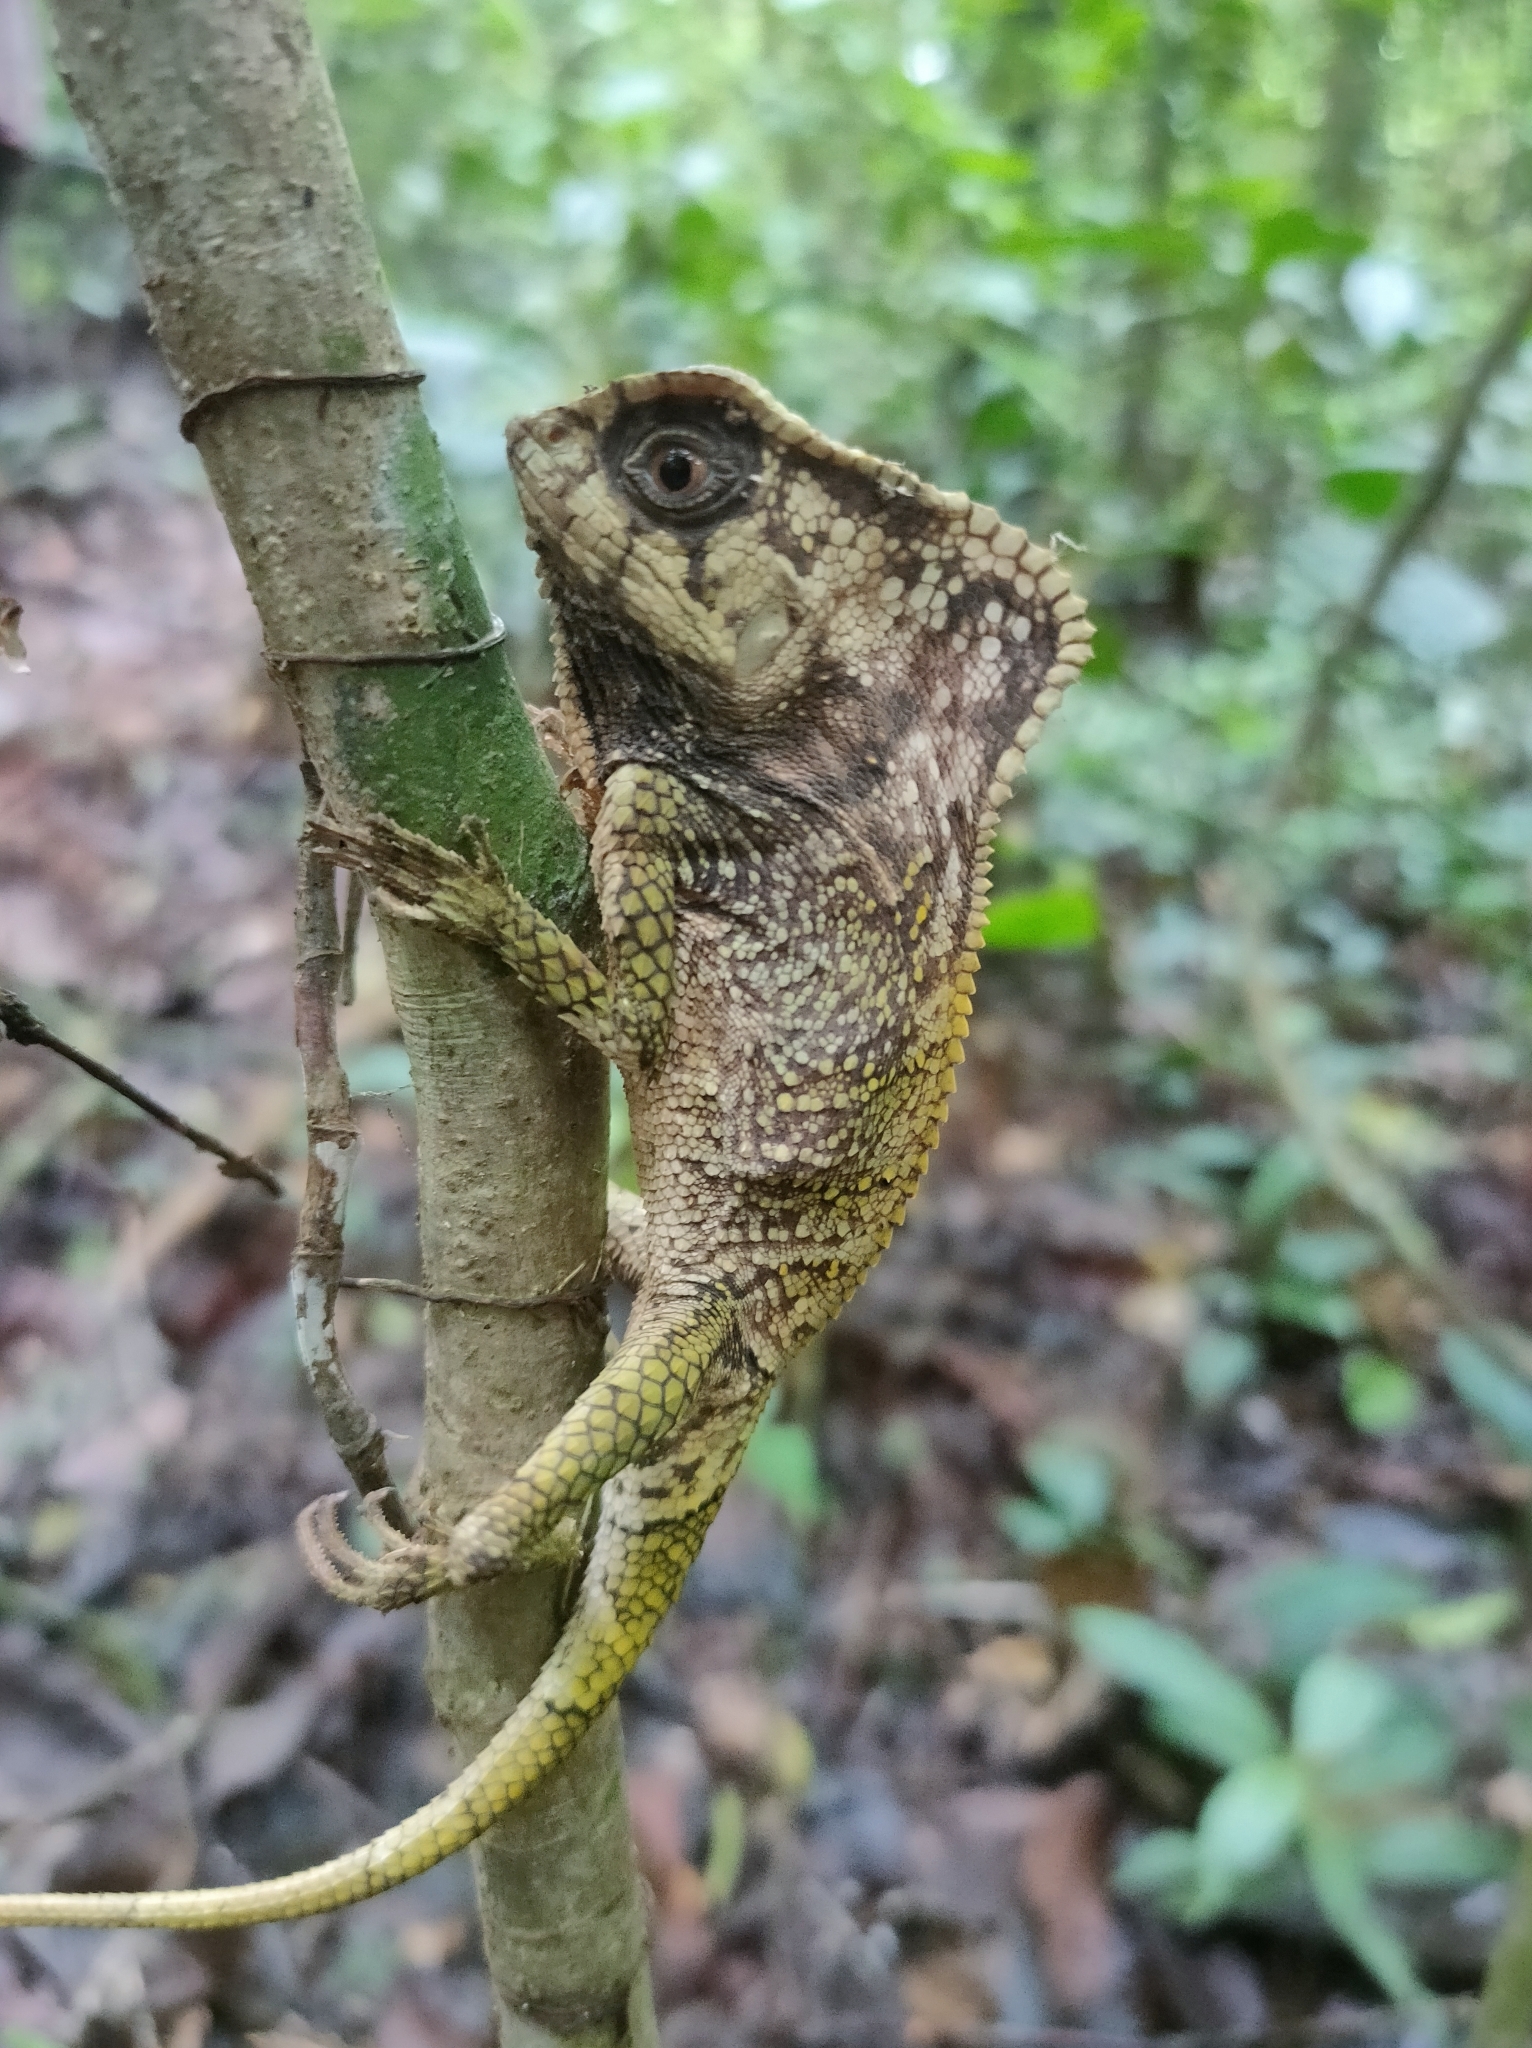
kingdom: Animalia
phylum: Chordata
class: Squamata
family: Corytophanidae
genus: Corytophanes
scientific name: Corytophanes cristatus
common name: Smooth helmeted iguana
